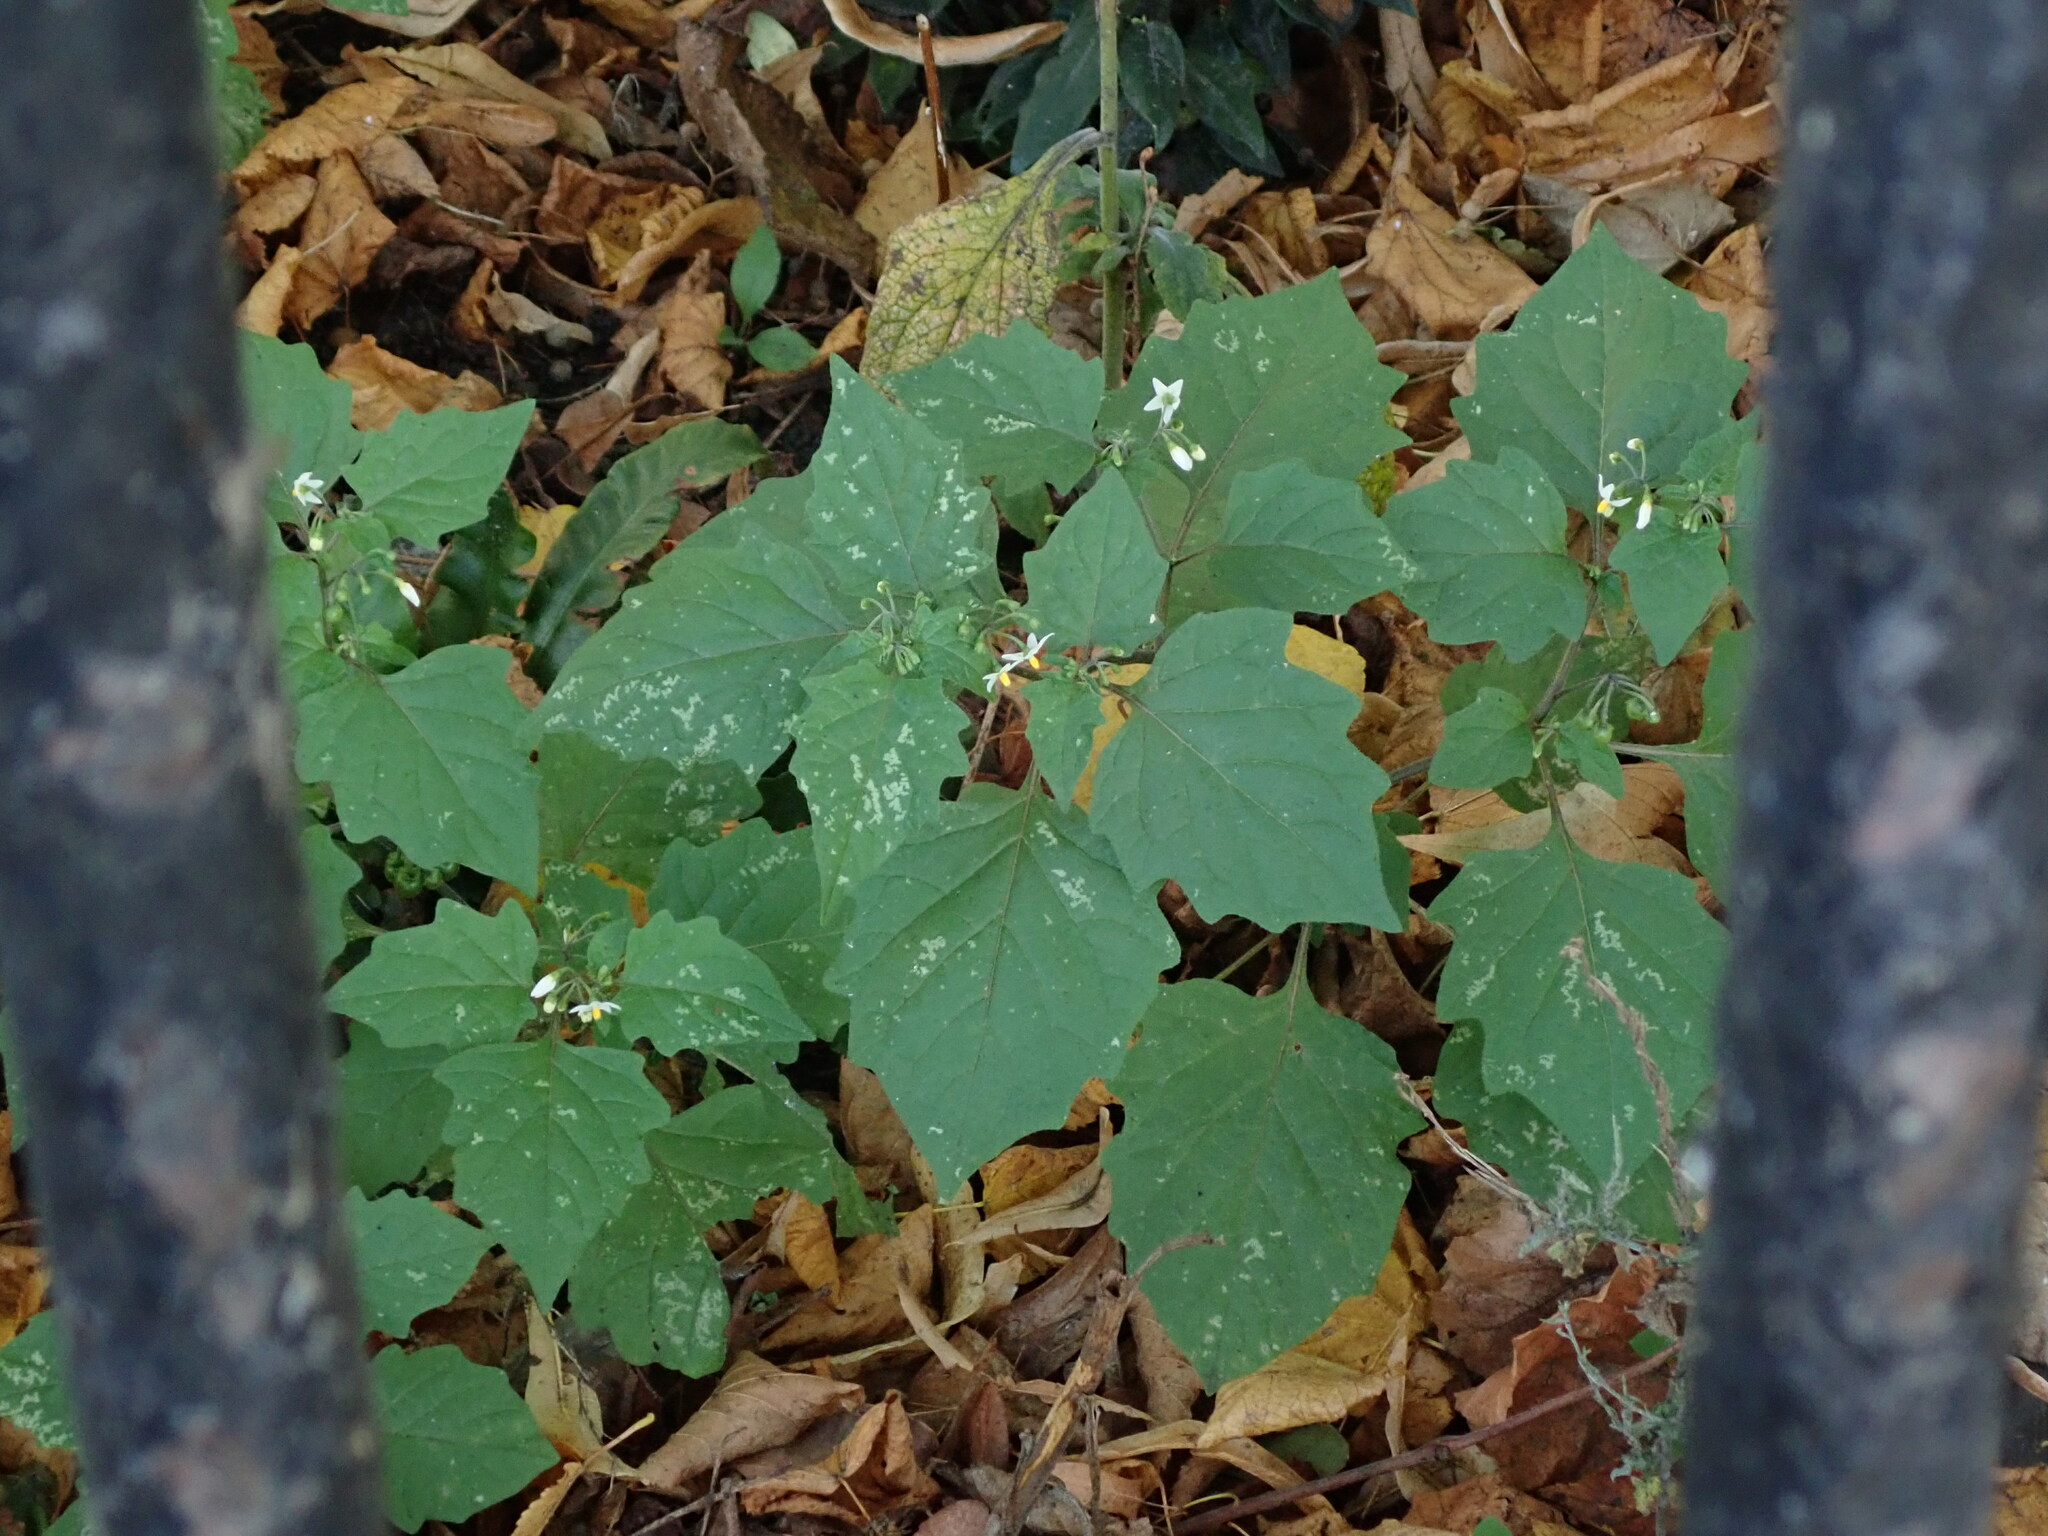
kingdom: Plantae
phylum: Tracheophyta
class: Magnoliopsida
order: Solanales
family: Solanaceae
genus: Solanum
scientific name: Solanum nigrum
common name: Black nightshade
